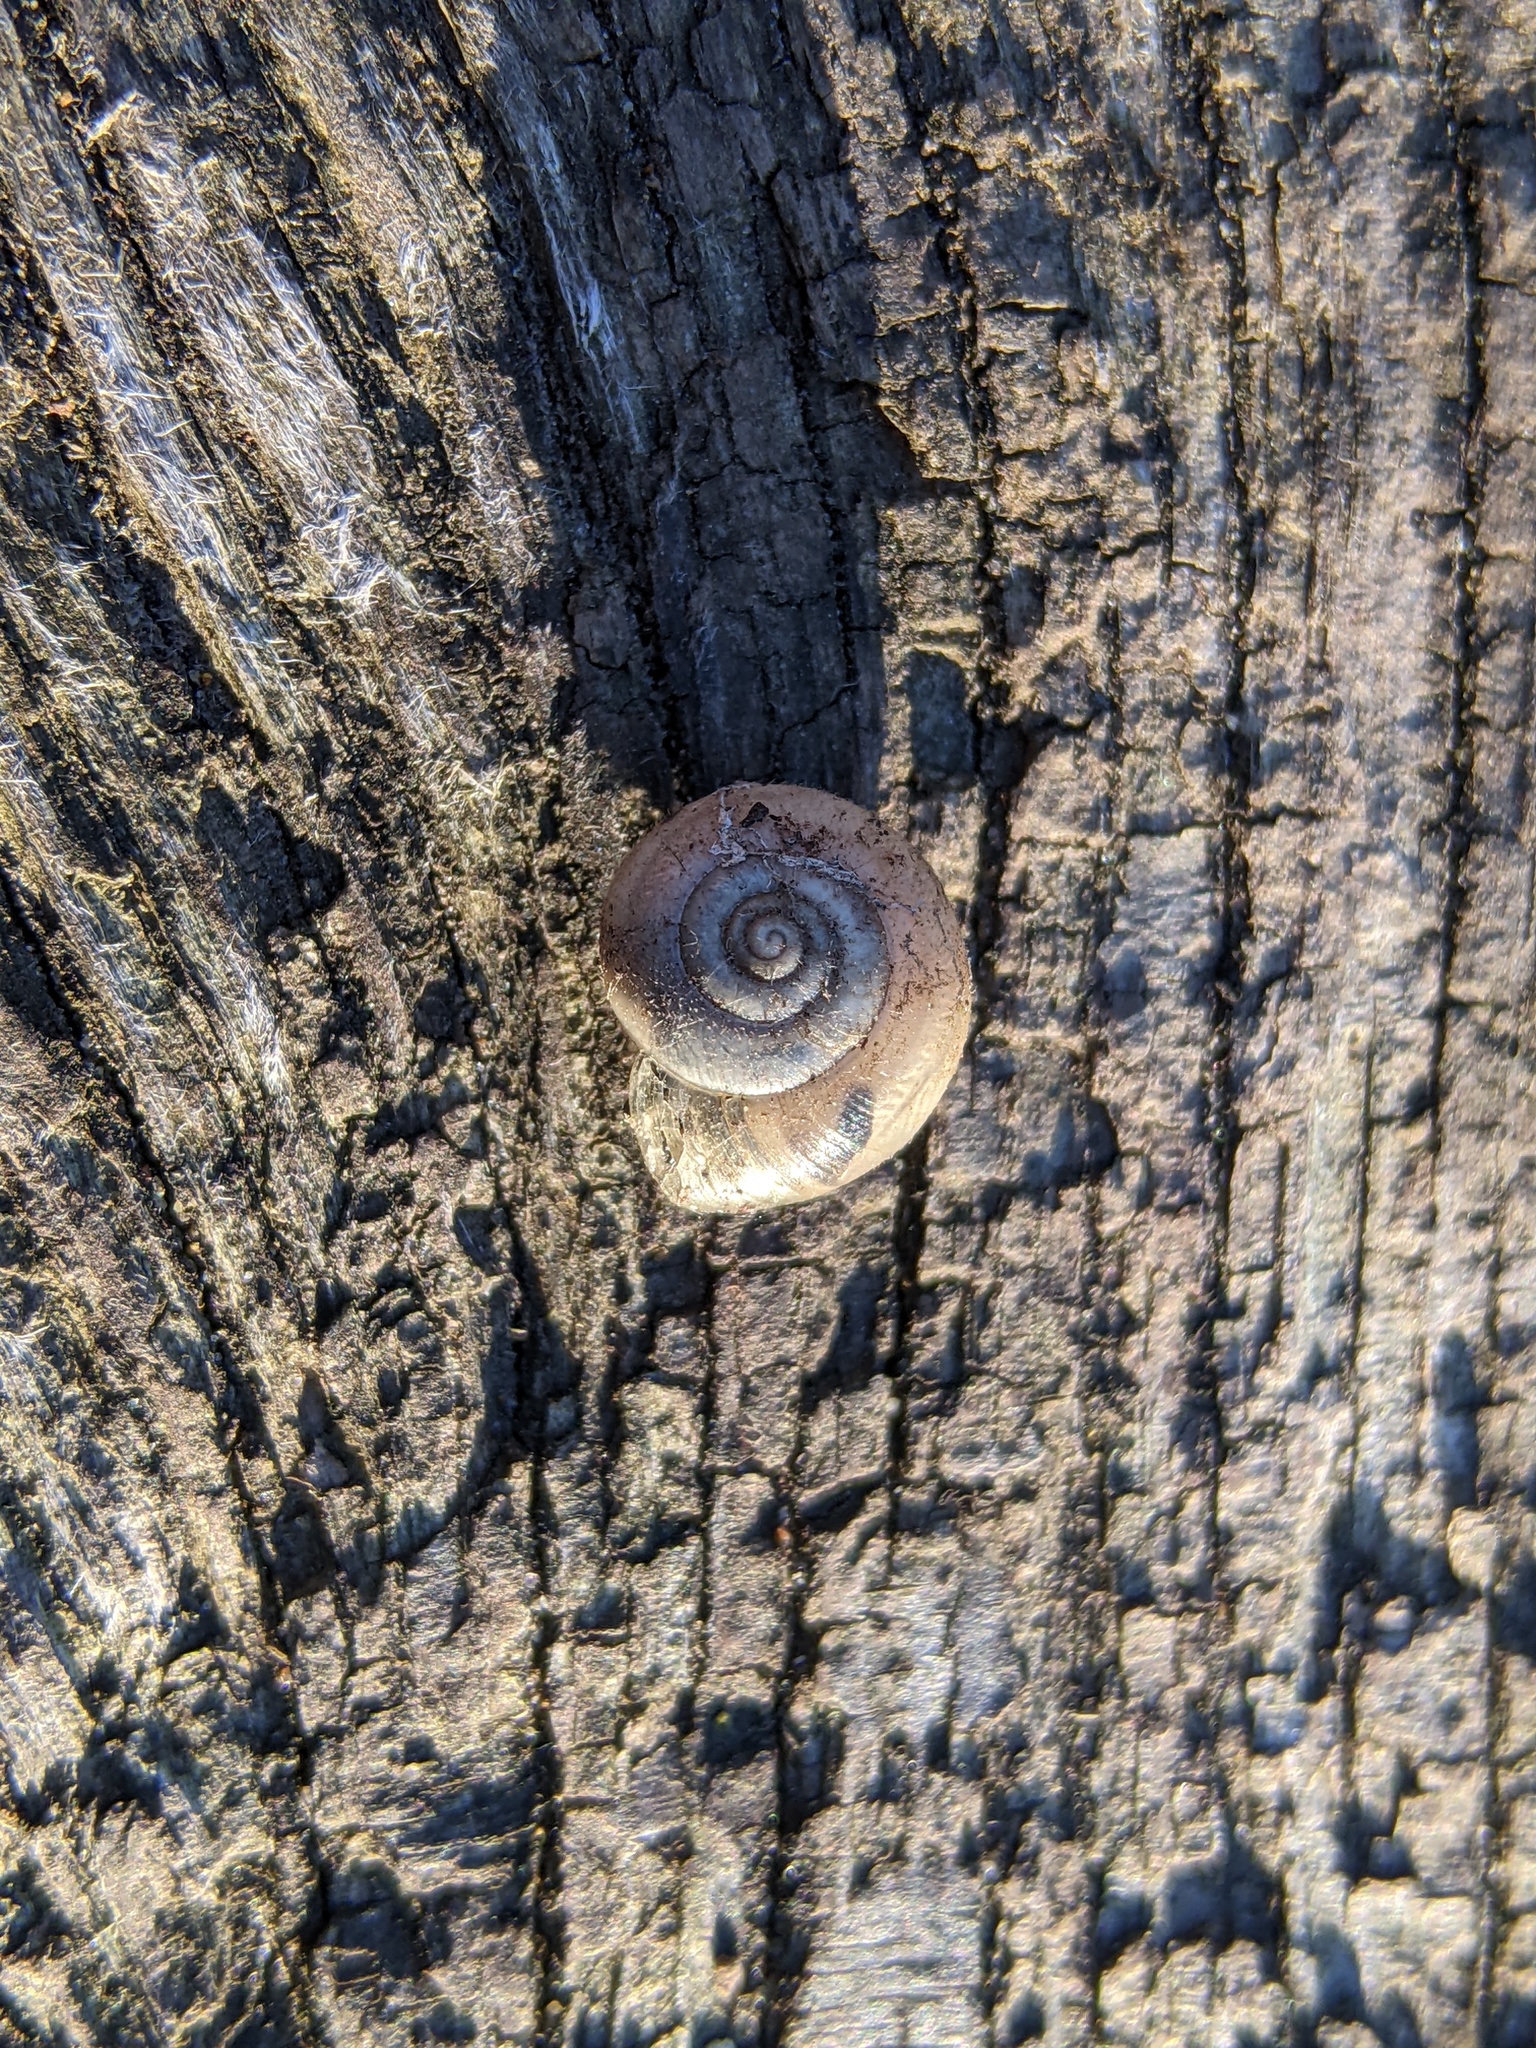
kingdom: Animalia
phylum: Mollusca
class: Gastropoda
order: Stylommatophora
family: Hygromiidae
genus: Monacha
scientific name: Monacha cantiana
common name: Kentish snail
